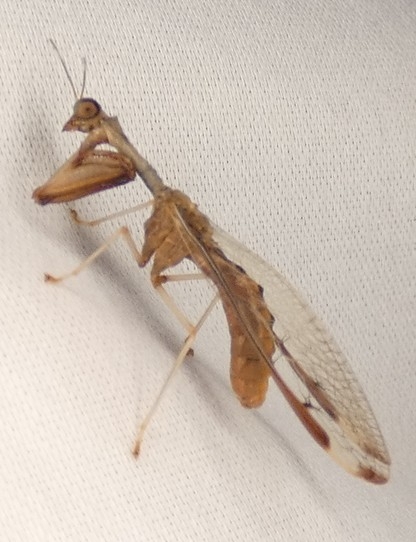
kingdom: Animalia
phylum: Arthropoda
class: Insecta
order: Neuroptera
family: Mantispidae
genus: Dicromantispa
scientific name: Dicromantispa interrupta
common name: Four-spotted mantidfly
